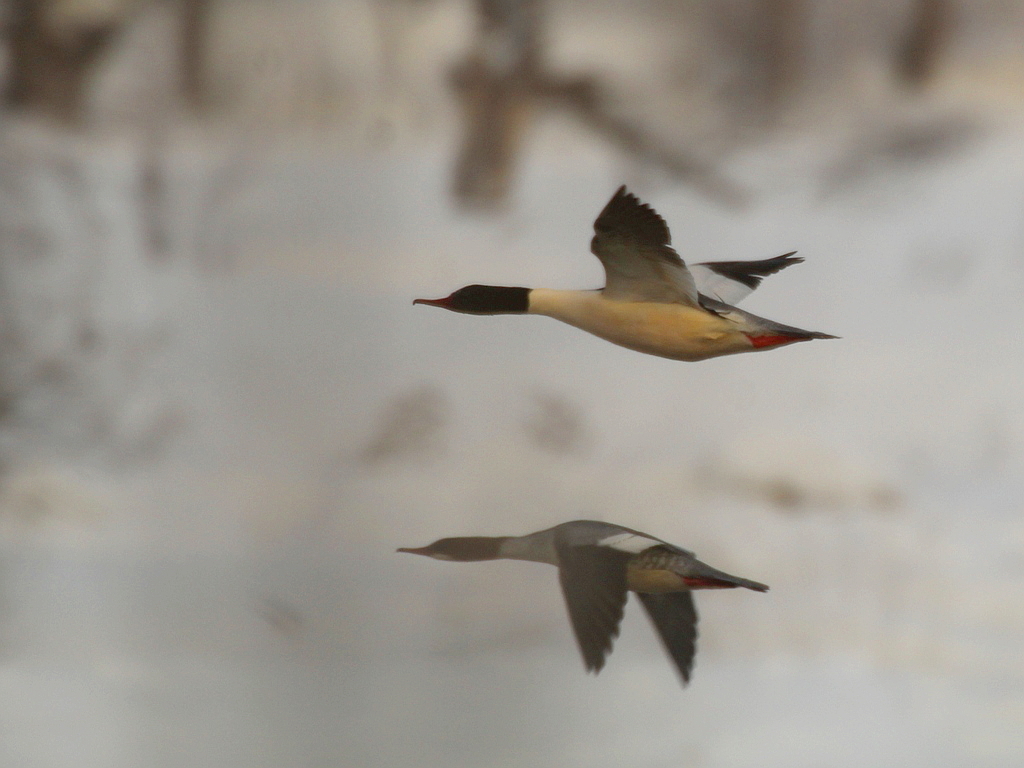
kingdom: Animalia
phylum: Chordata
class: Aves
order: Anseriformes
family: Anatidae
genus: Mergus
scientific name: Mergus merganser
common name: Common merganser
